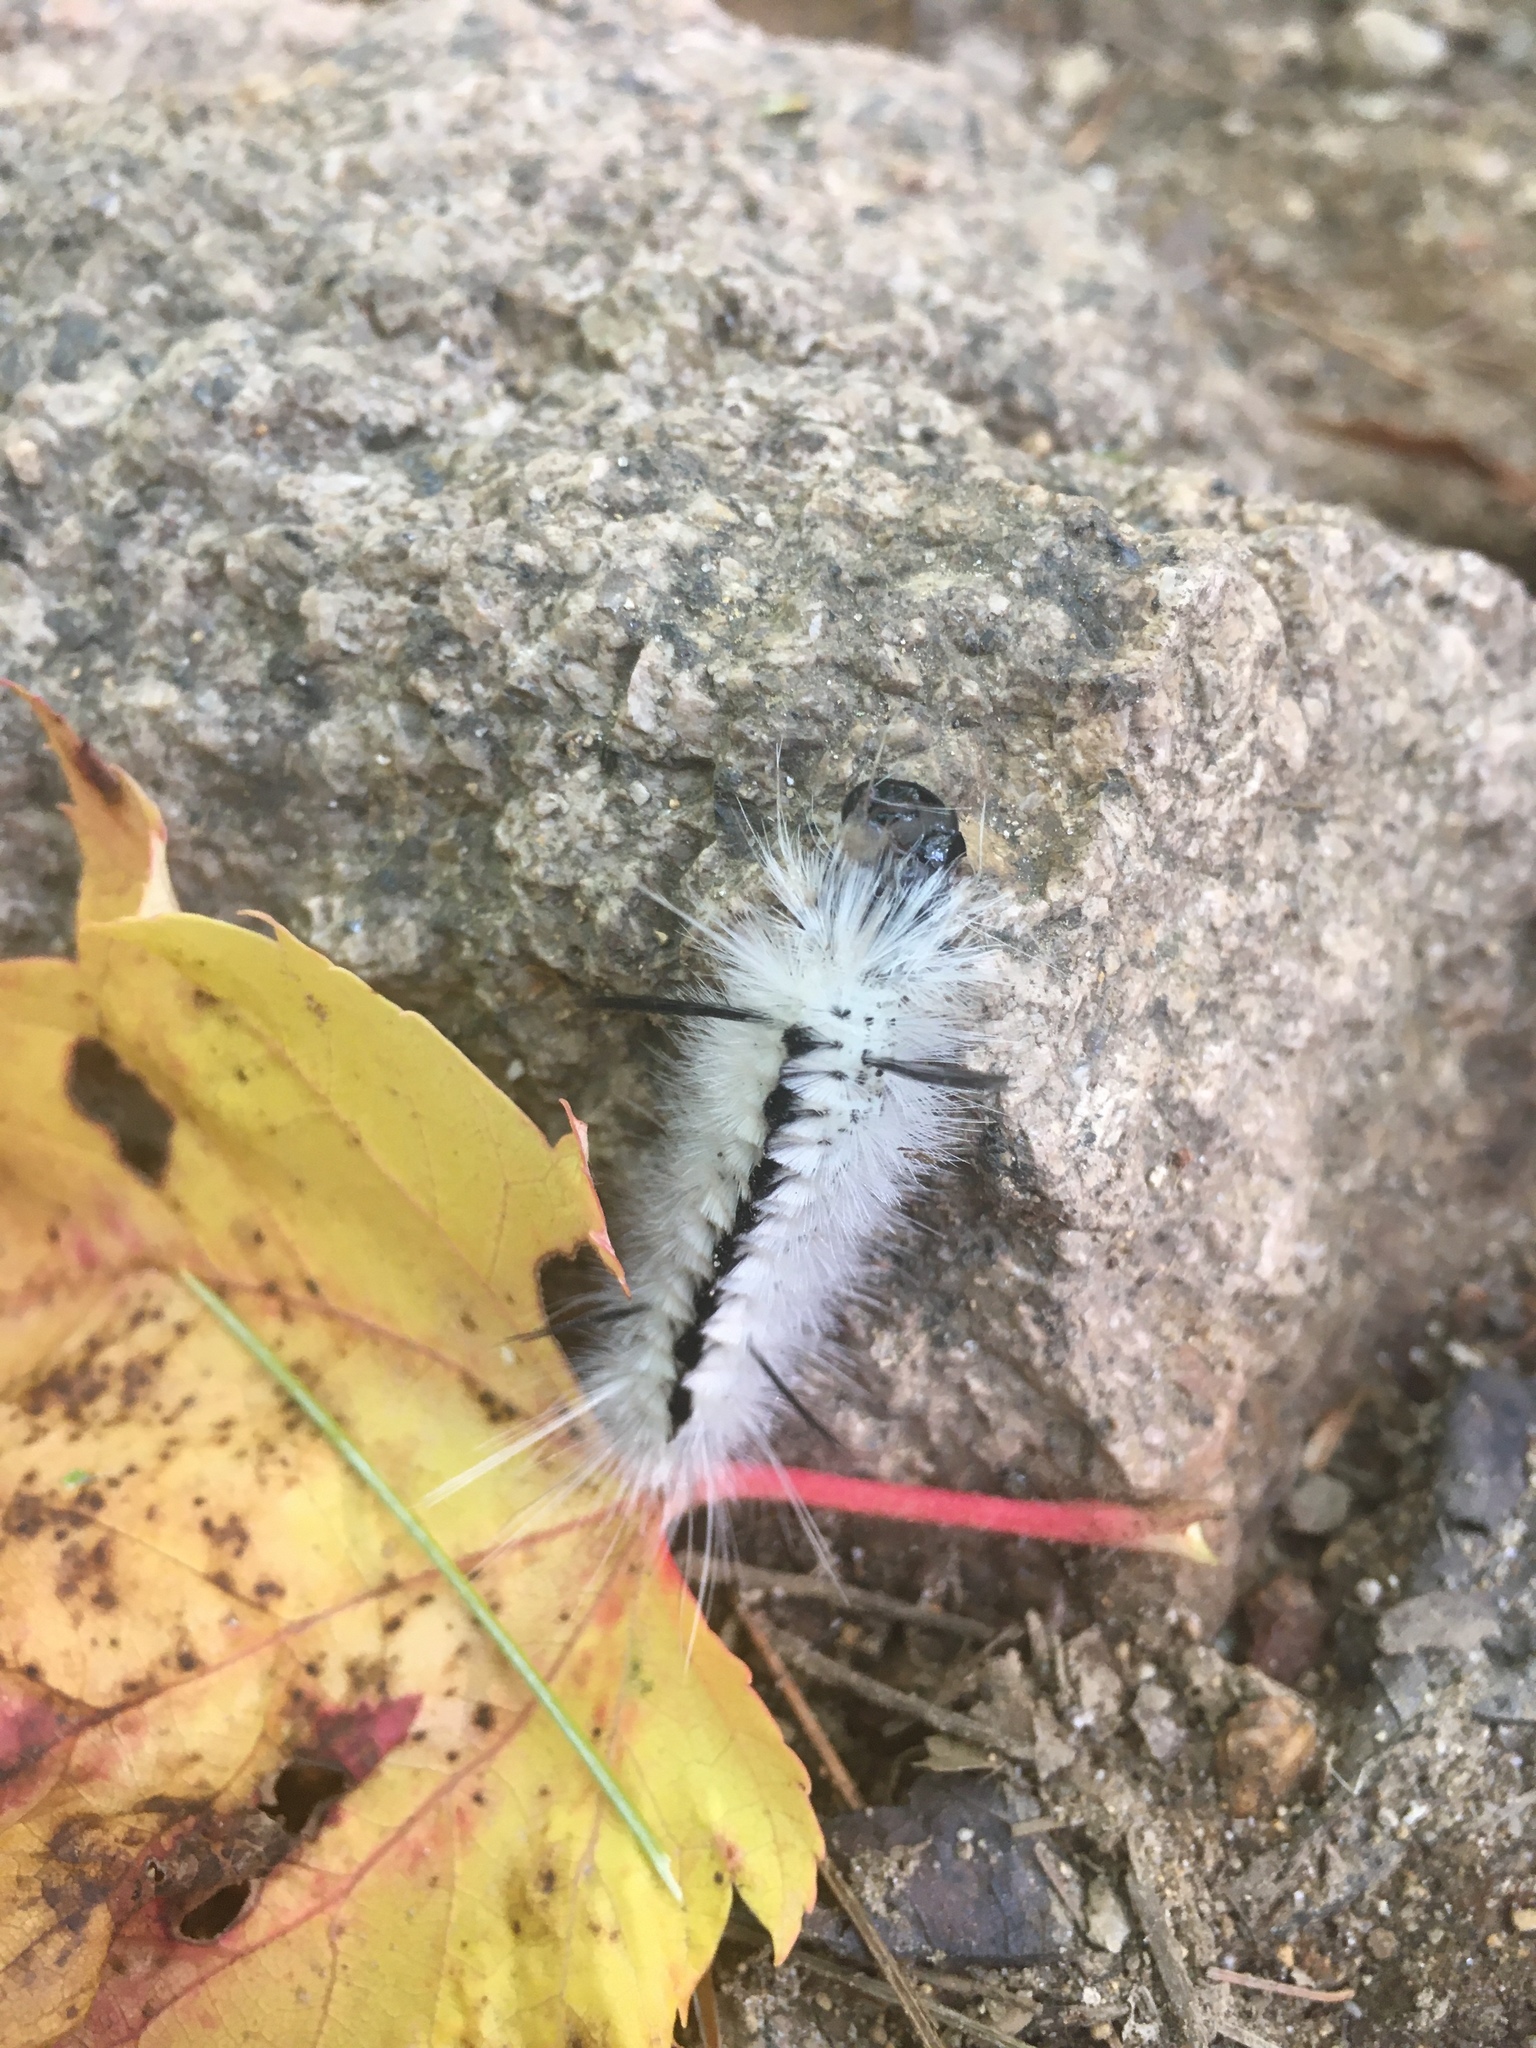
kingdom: Animalia
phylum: Arthropoda
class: Insecta
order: Lepidoptera
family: Erebidae
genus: Lophocampa
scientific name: Lophocampa caryae
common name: Hickory tussock moth
